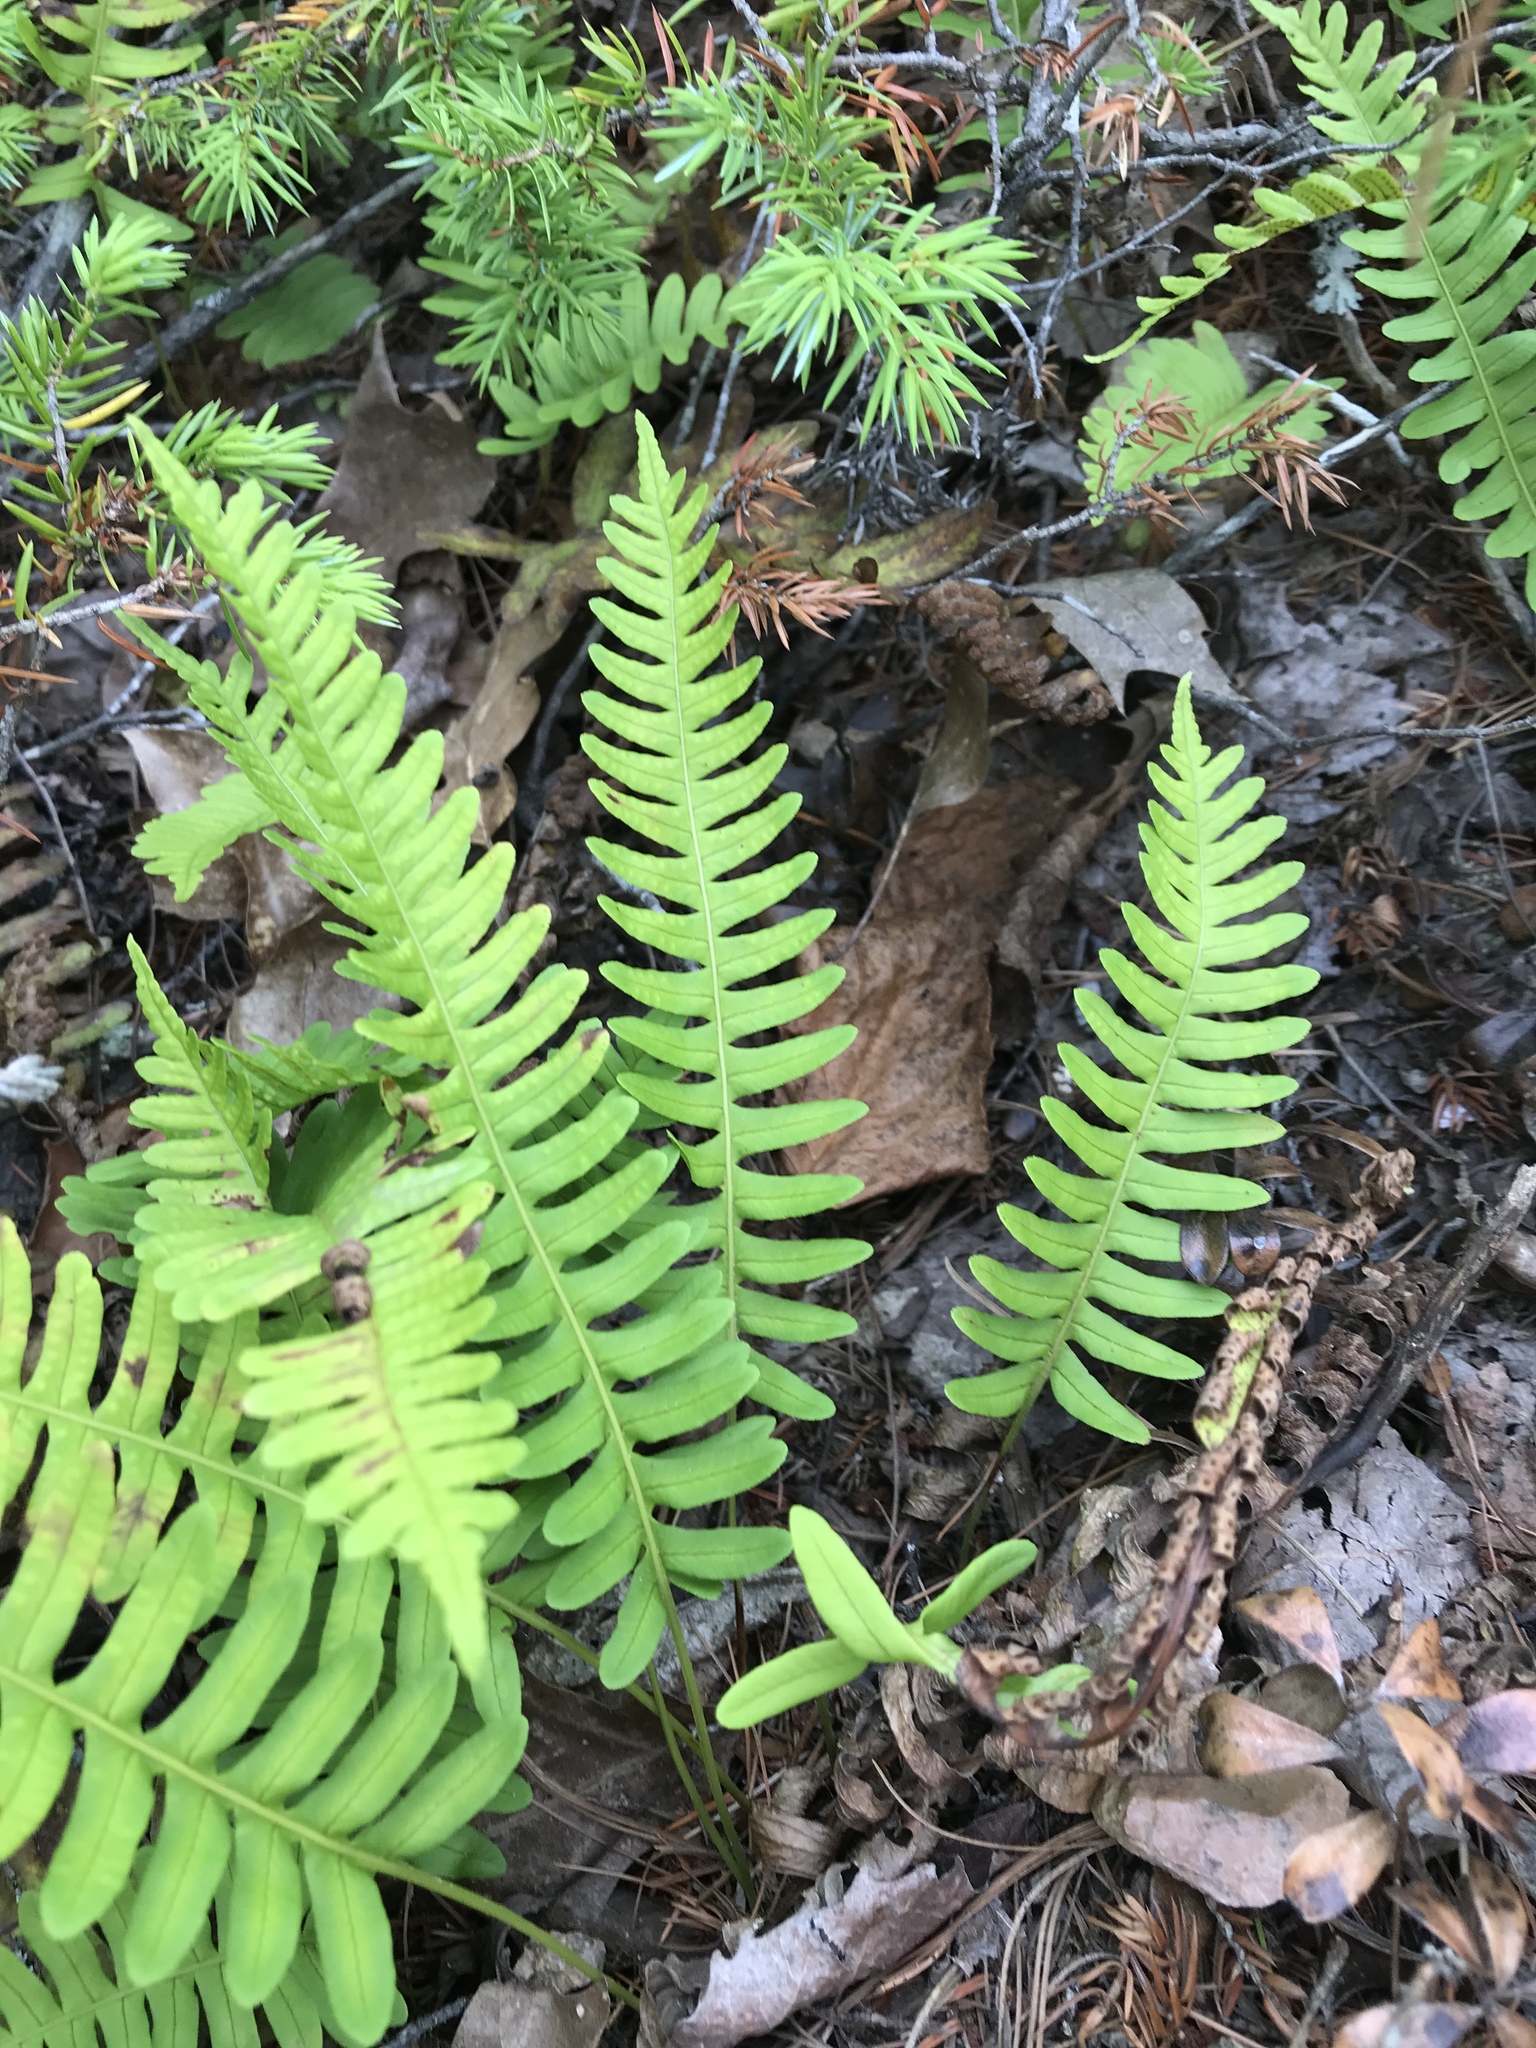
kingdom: Plantae
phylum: Tracheophyta
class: Polypodiopsida
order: Polypodiales
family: Polypodiaceae
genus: Polypodium
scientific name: Polypodium virginianum
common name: American wall fern
